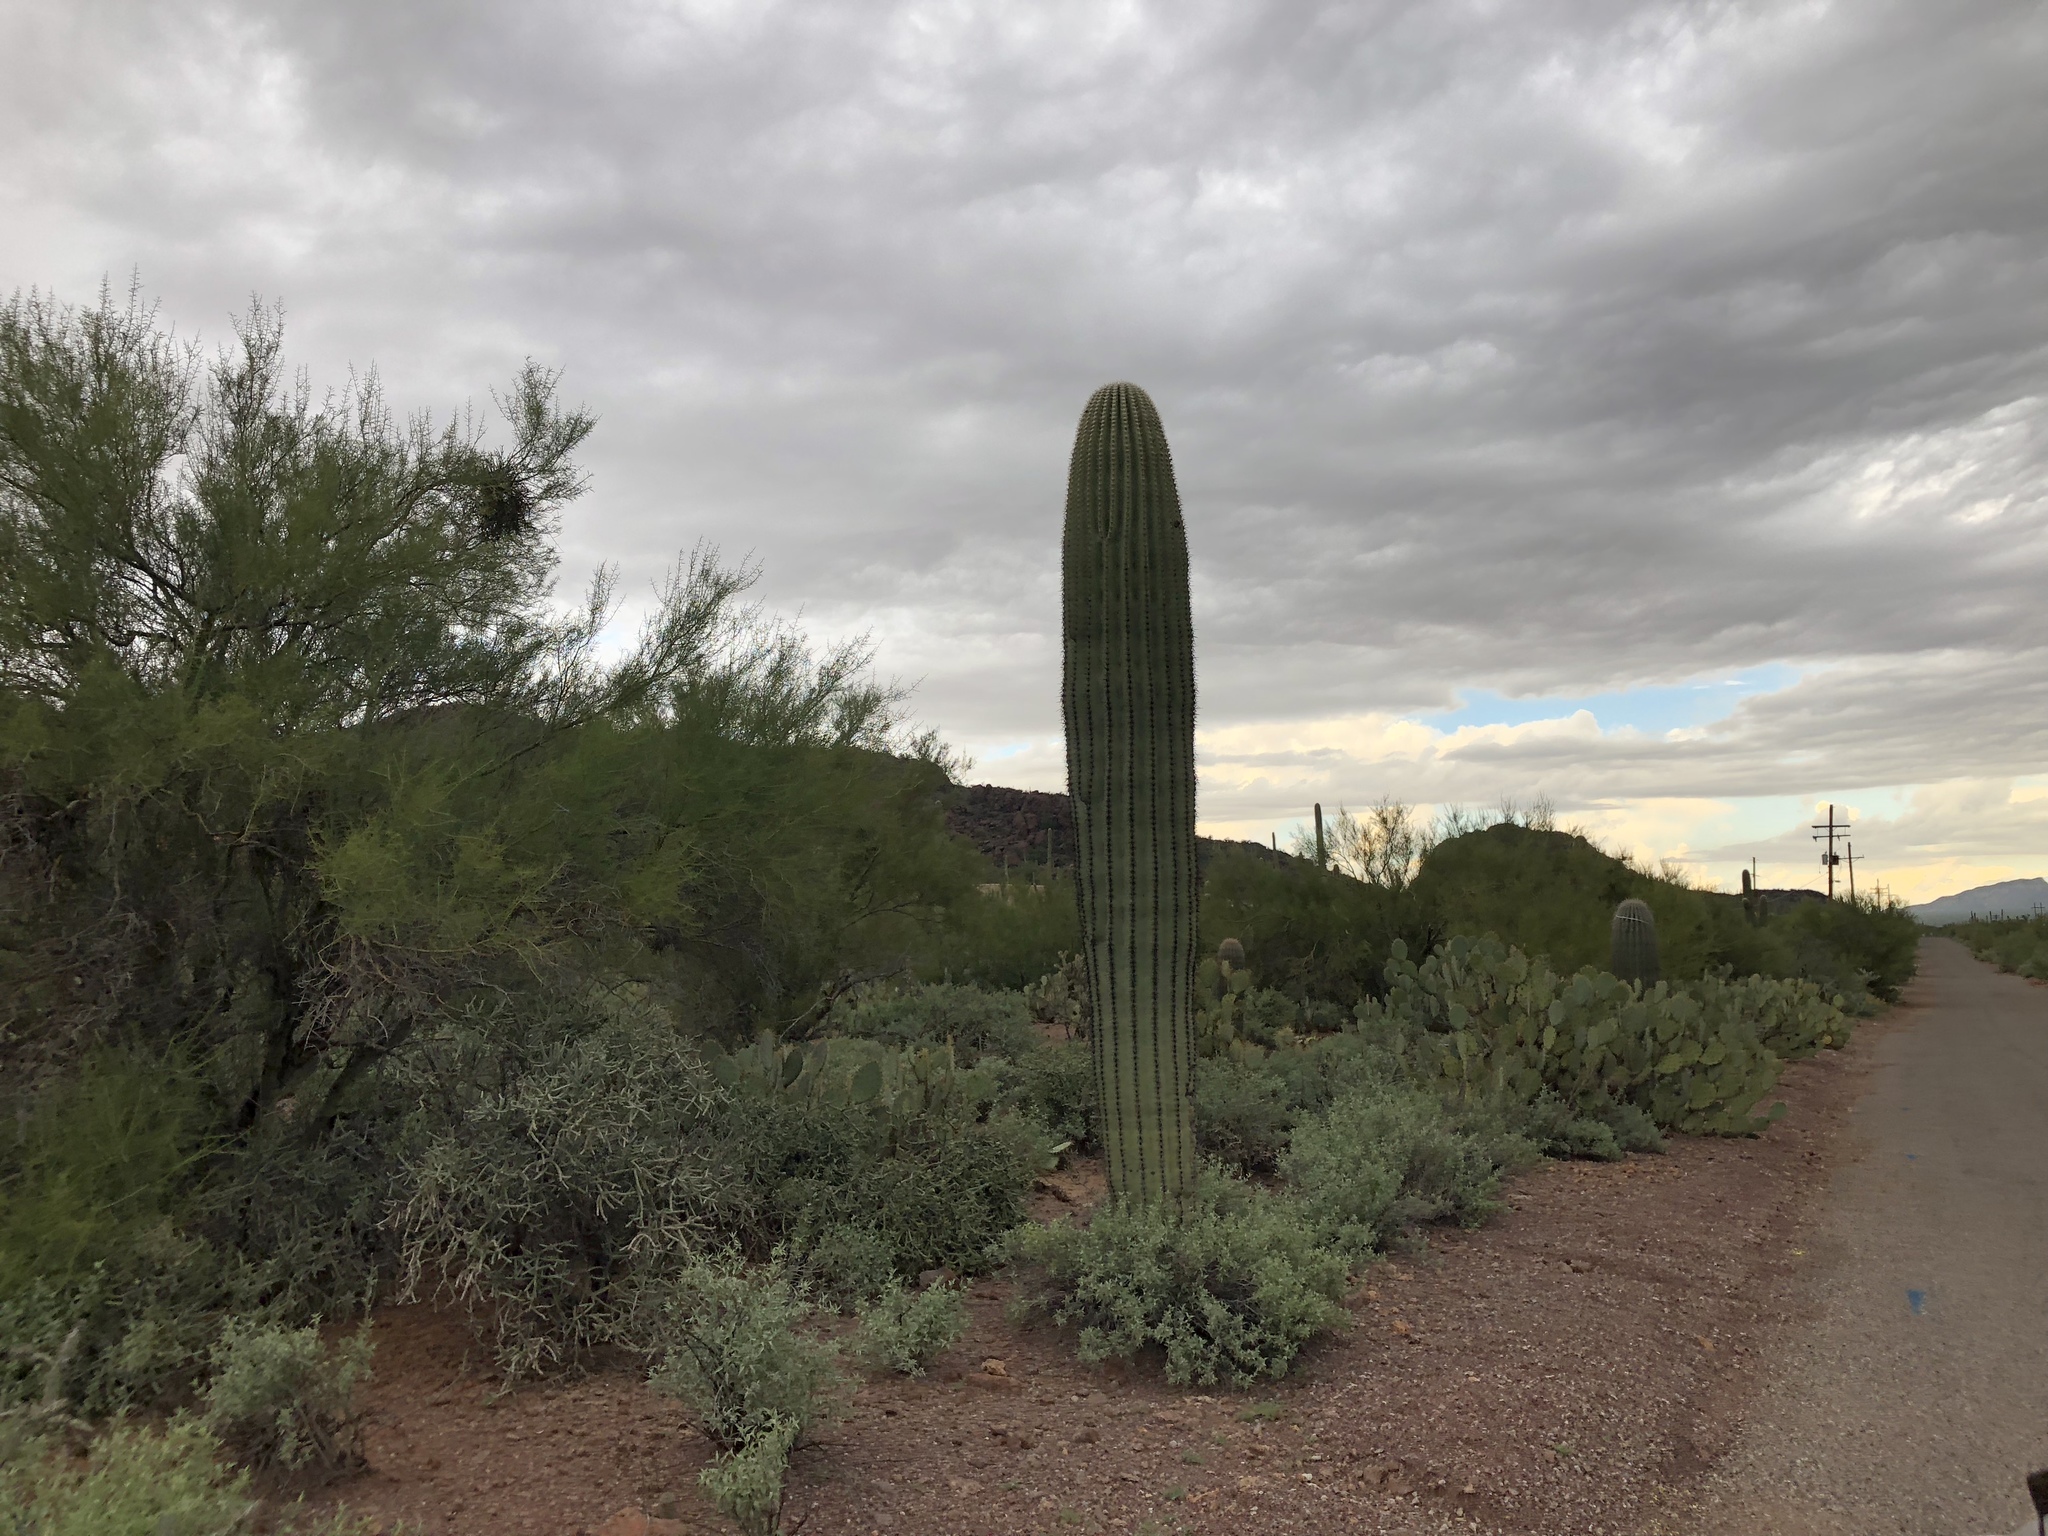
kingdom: Plantae
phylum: Tracheophyta
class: Magnoliopsida
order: Caryophyllales
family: Cactaceae
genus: Carnegiea
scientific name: Carnegiea gigantea
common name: Saguaro
